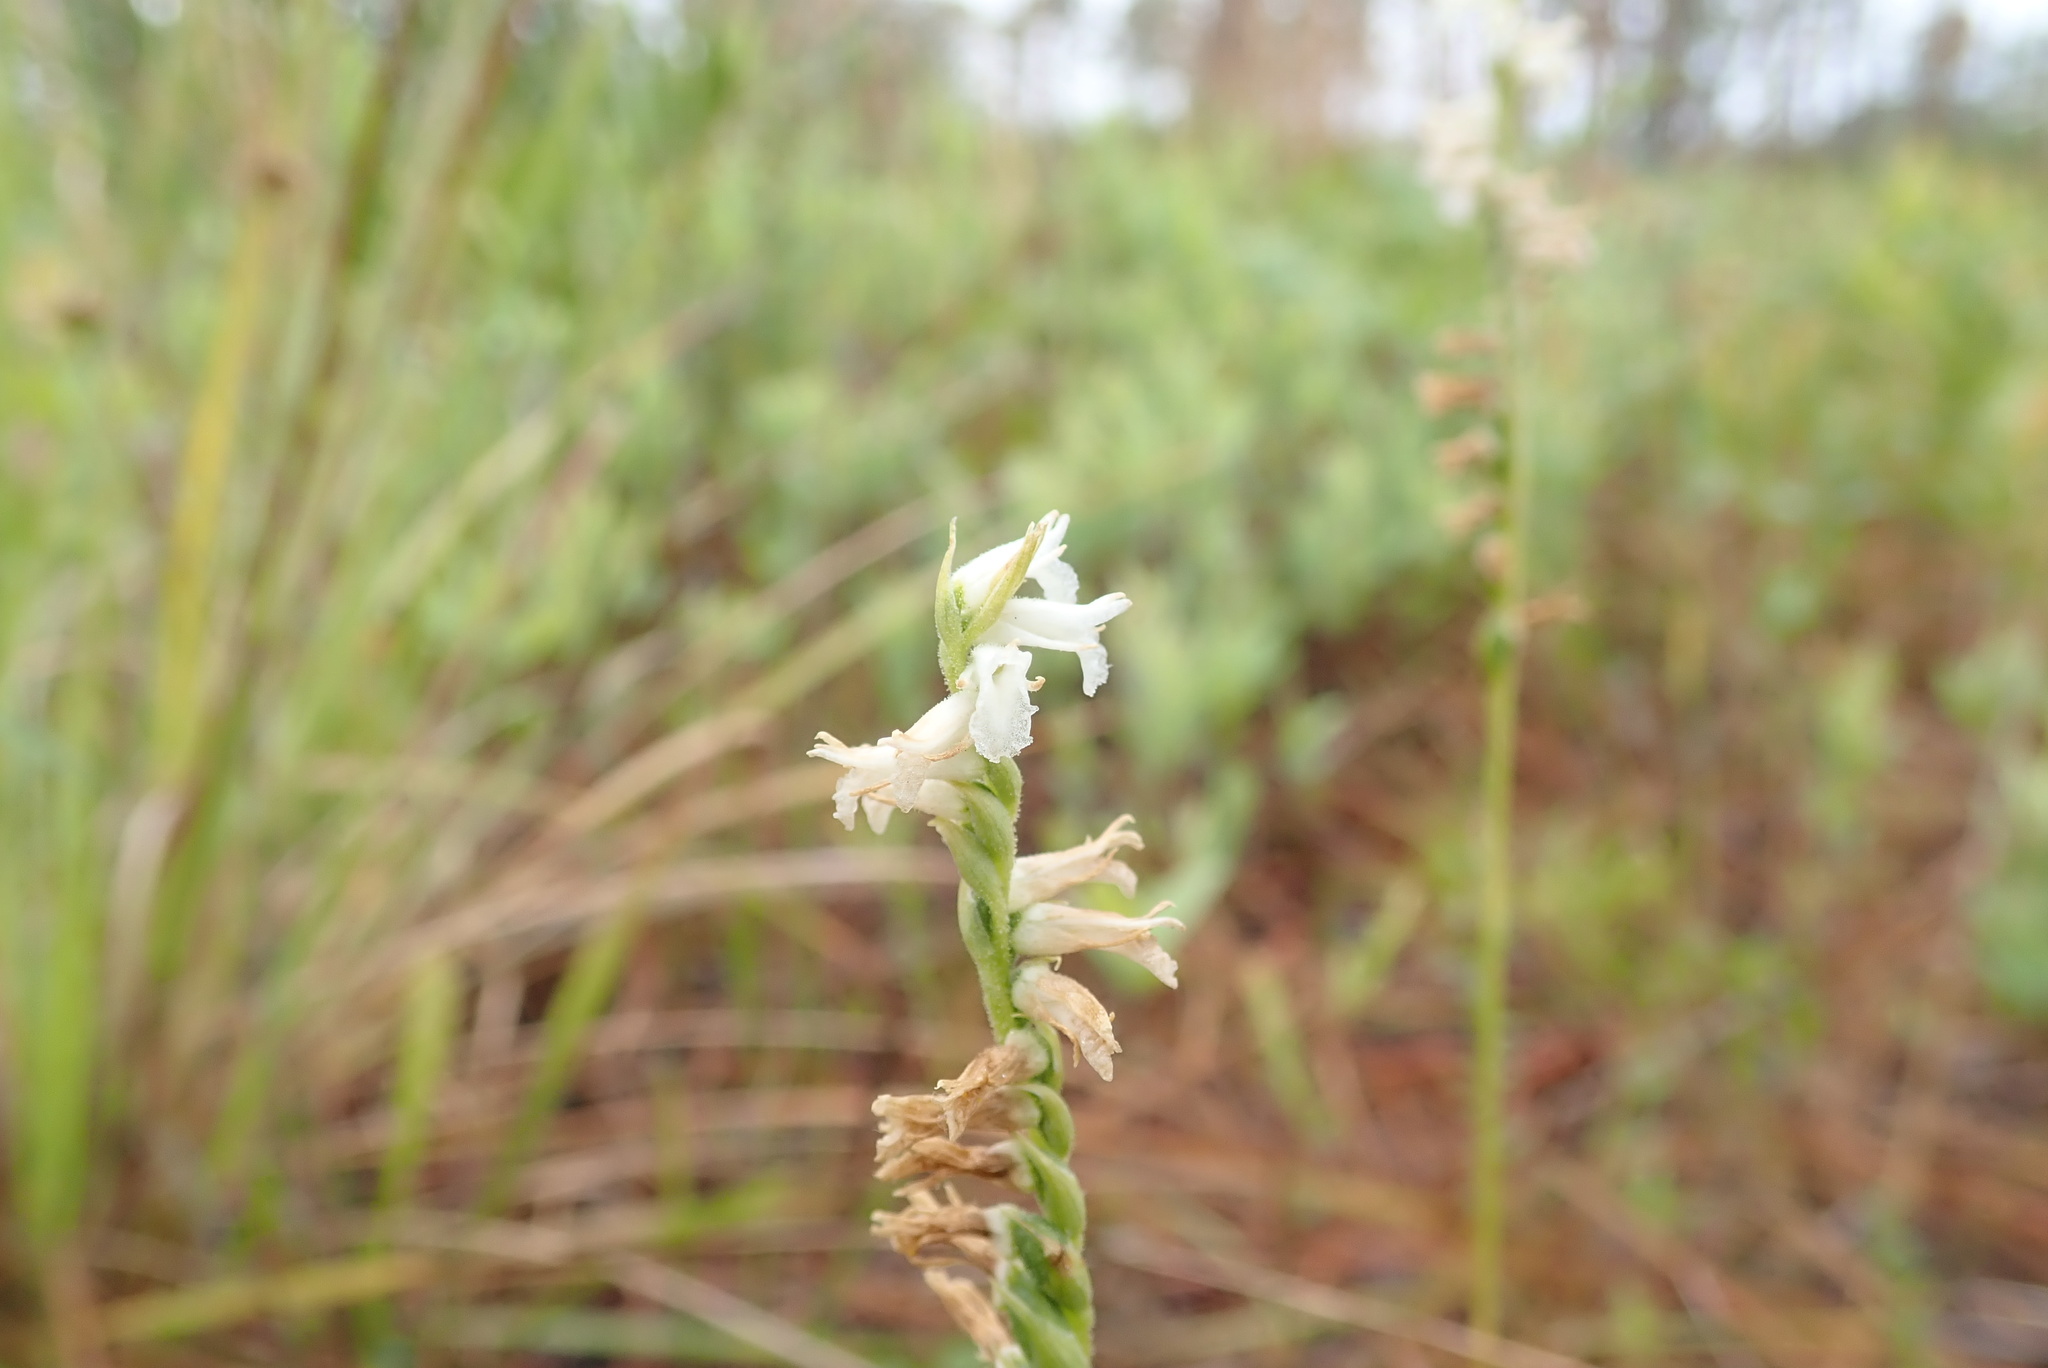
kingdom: Plantae
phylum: Tracheophyta
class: Liliopsida
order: Asparagales
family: Orchidaceae
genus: Spiranthes
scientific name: Spiranthes praecox
